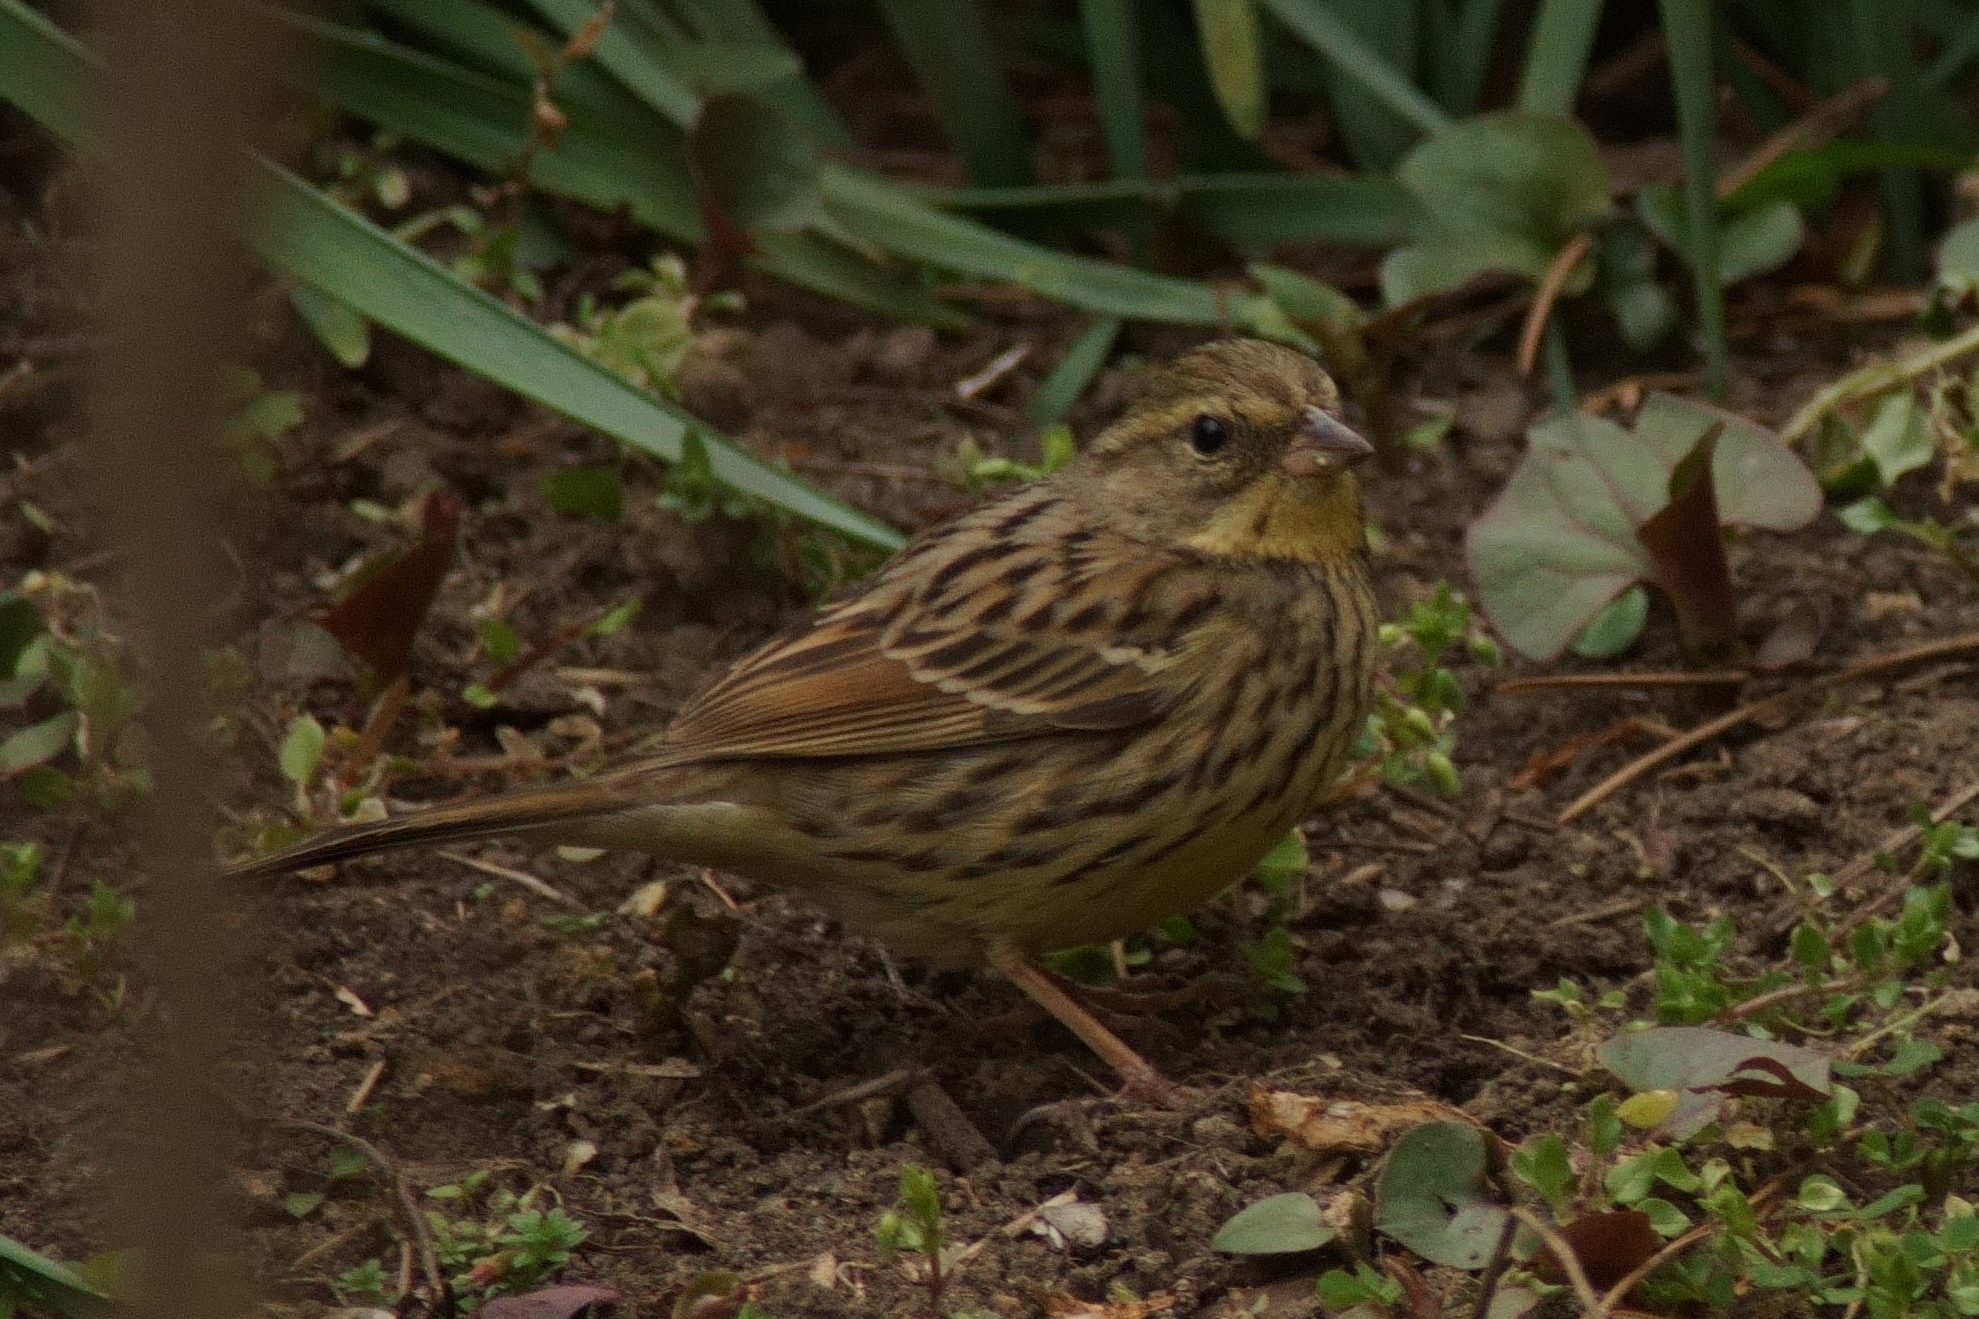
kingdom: Animalia
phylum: Chordata
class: Aves
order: Passeriformes
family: Emberizidae
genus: Emberiza
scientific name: Emberiza personata
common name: Masked bunting
